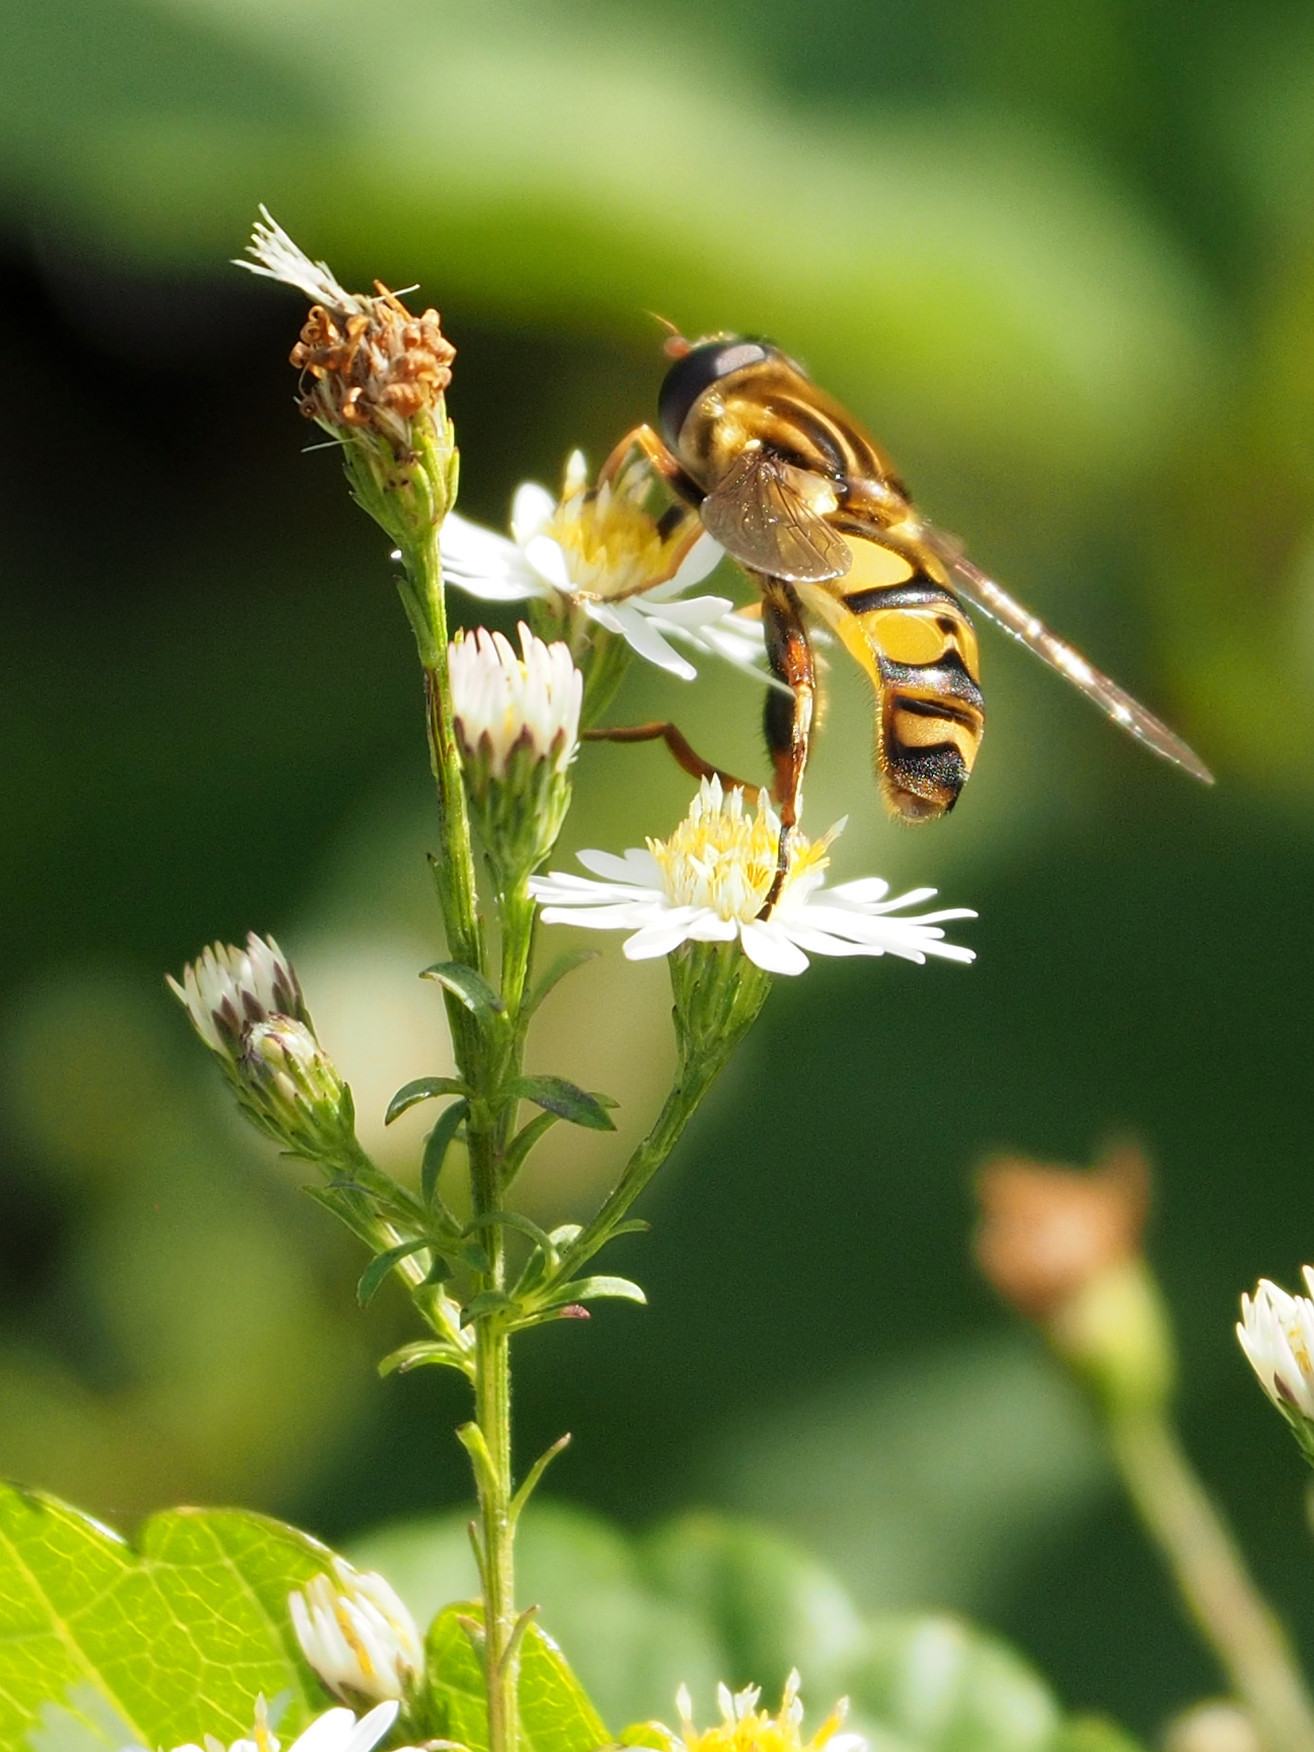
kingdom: Animalia
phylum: Arthropoda
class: Insecta
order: Diptera
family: Syrphidae
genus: Helophilus
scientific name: Helophilus fasciatus
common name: Narrow-headed marsh fly
